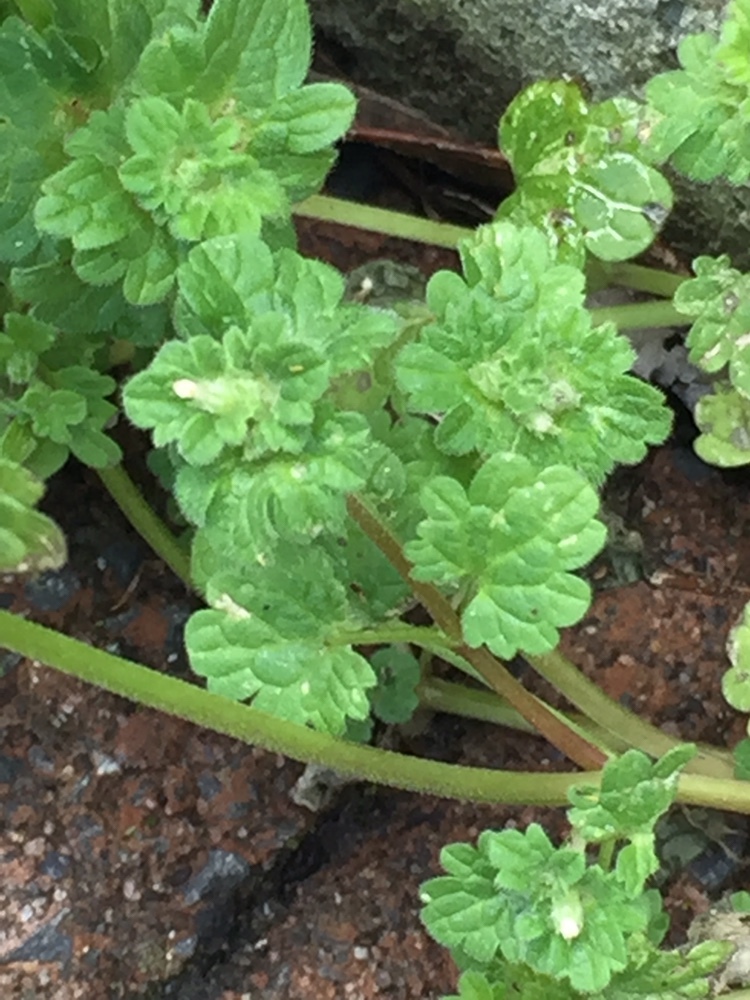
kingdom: Plantae
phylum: Tracheophyta
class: Magnoliopsida
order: Lamiales
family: Lamiaceae
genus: Lamium
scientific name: Lamium amplexicaule
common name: Henbit dead-nettle
